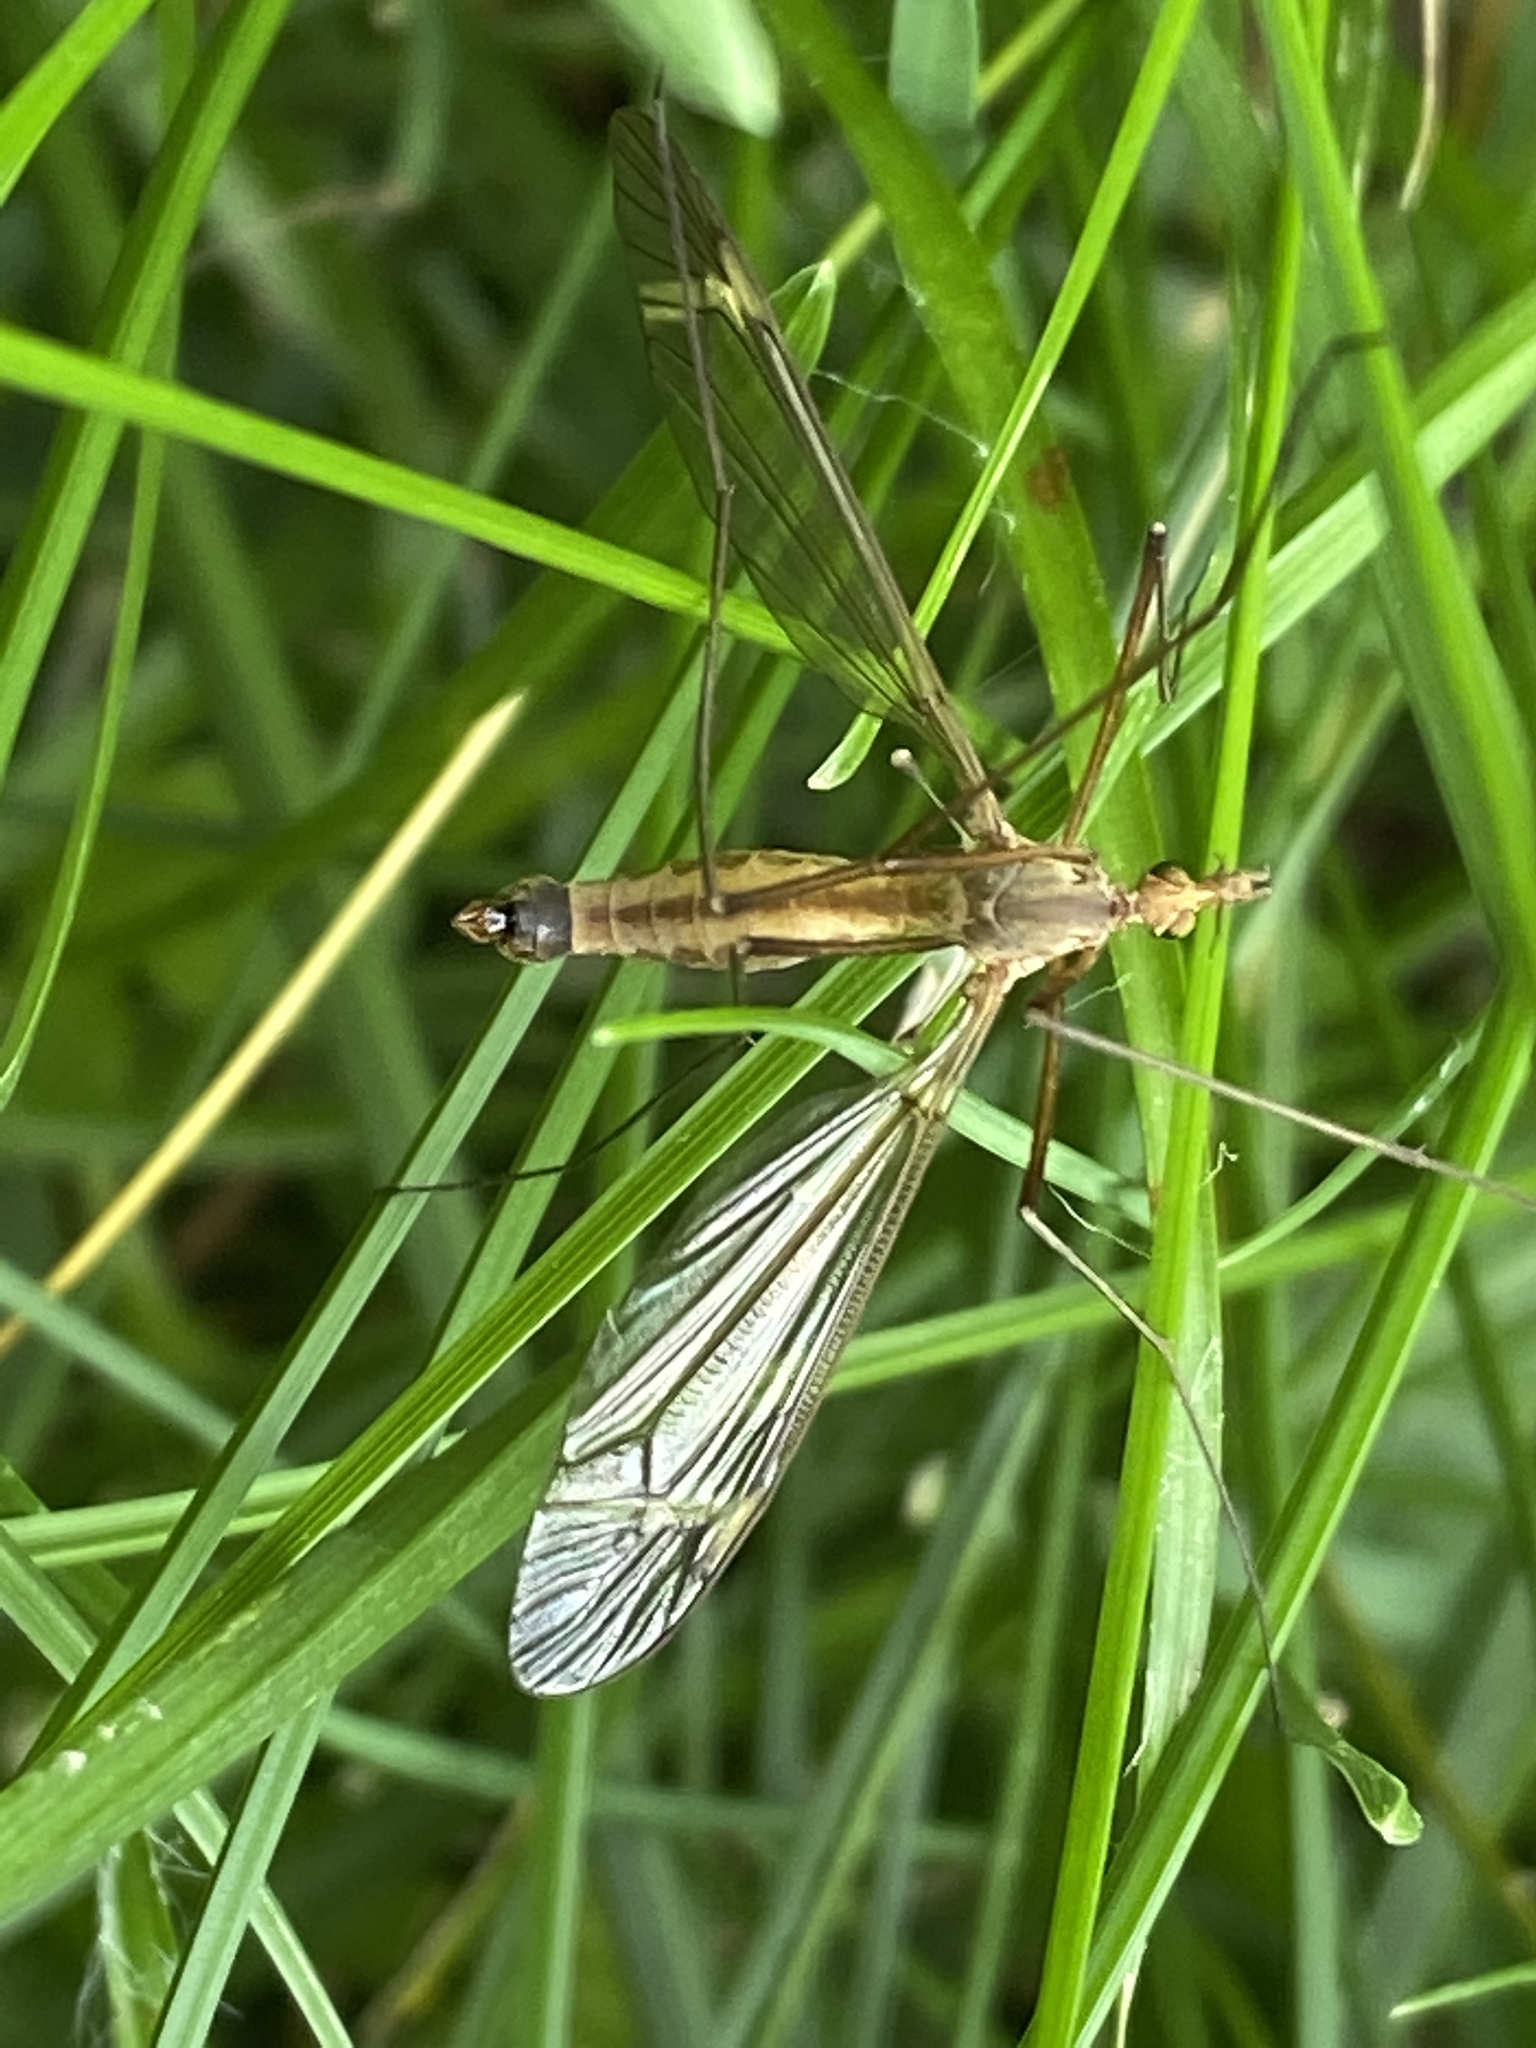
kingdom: Animalia
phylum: Arthropoda
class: Insecta
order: Diptera
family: Tipulidae
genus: Tipula
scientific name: Tipula fascipennis
